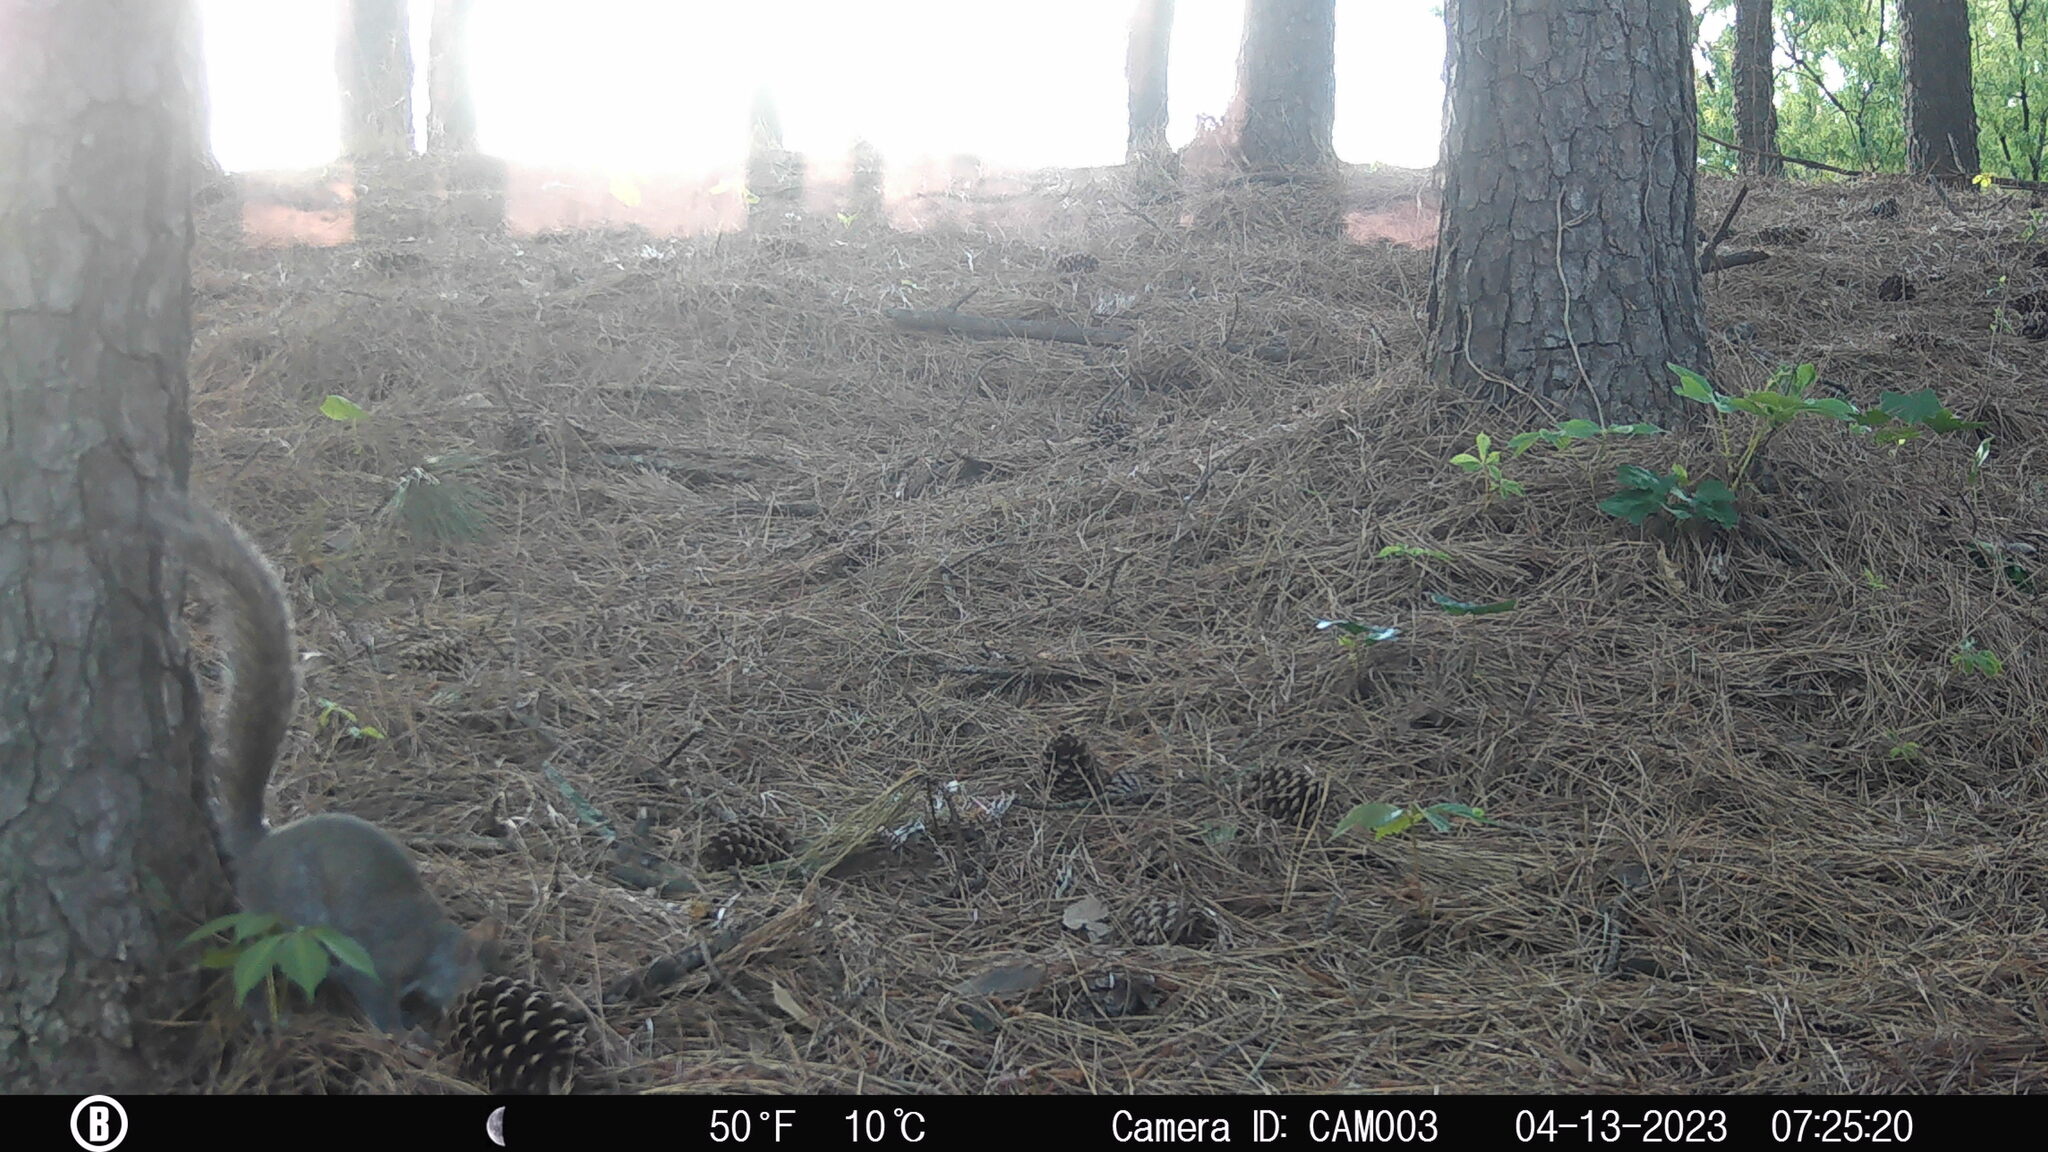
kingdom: Animalia
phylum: Chordata
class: Mammalia
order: Rodentia
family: Sciuridae
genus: Sciurus
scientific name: Sciurus carolinensis
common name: Eastern gray squirrel
